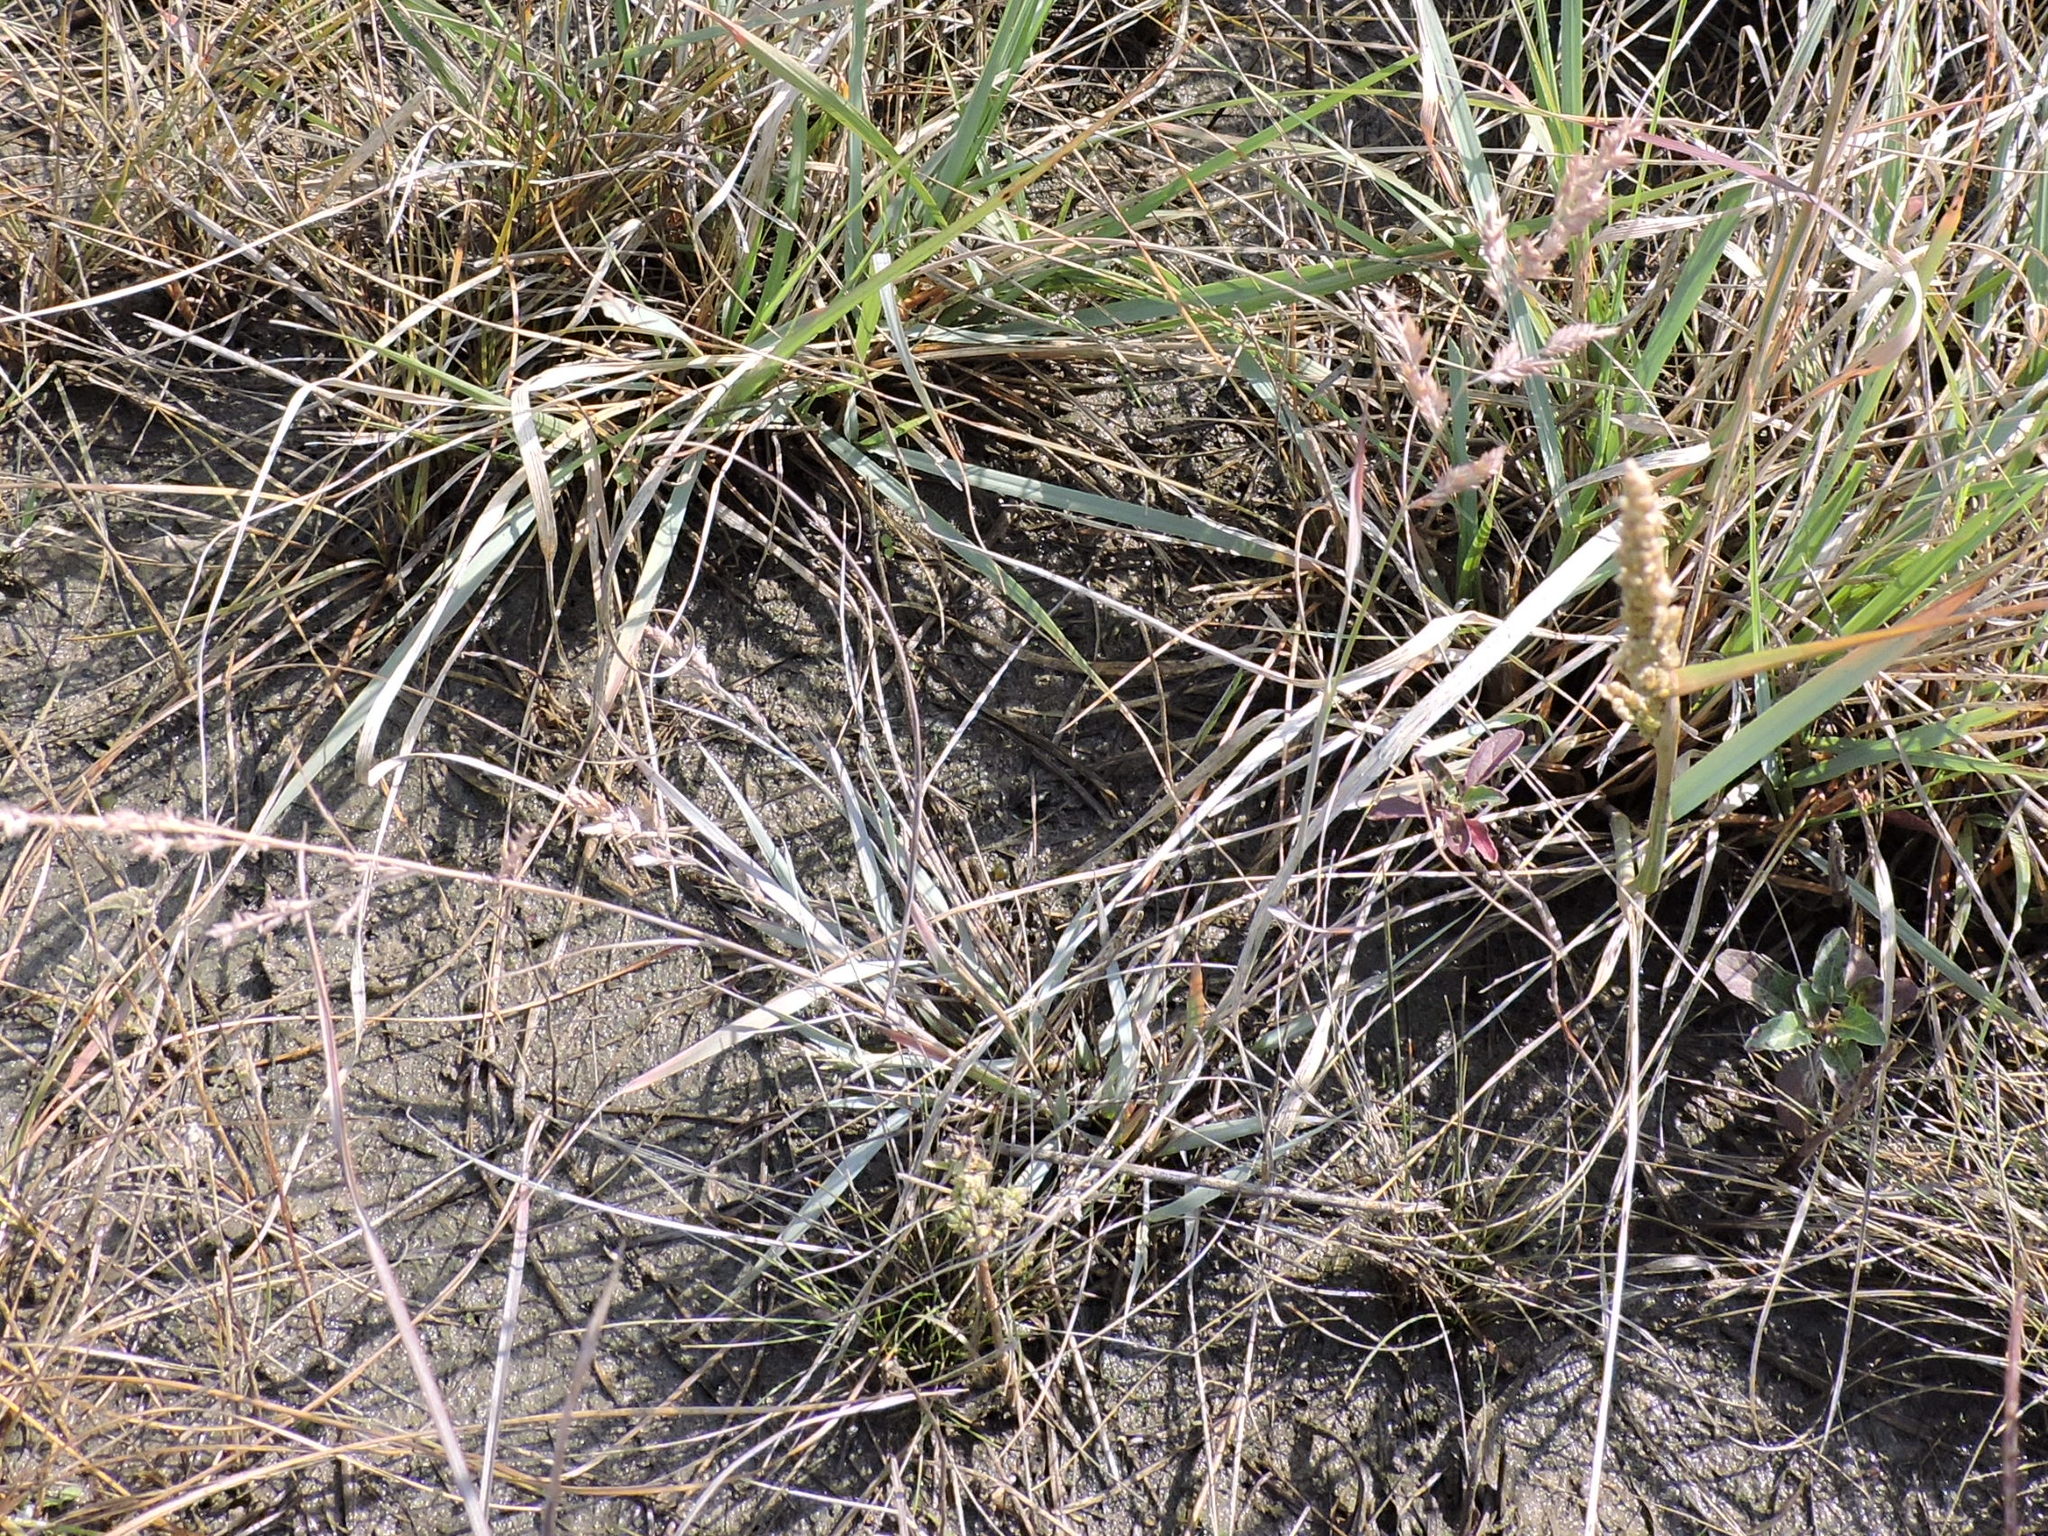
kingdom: Plantae
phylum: Tracheophyta
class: Liliopsida
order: Poales
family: Poaceae
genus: Eragrostis
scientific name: Eragrostis secundiflora
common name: Red love grass
